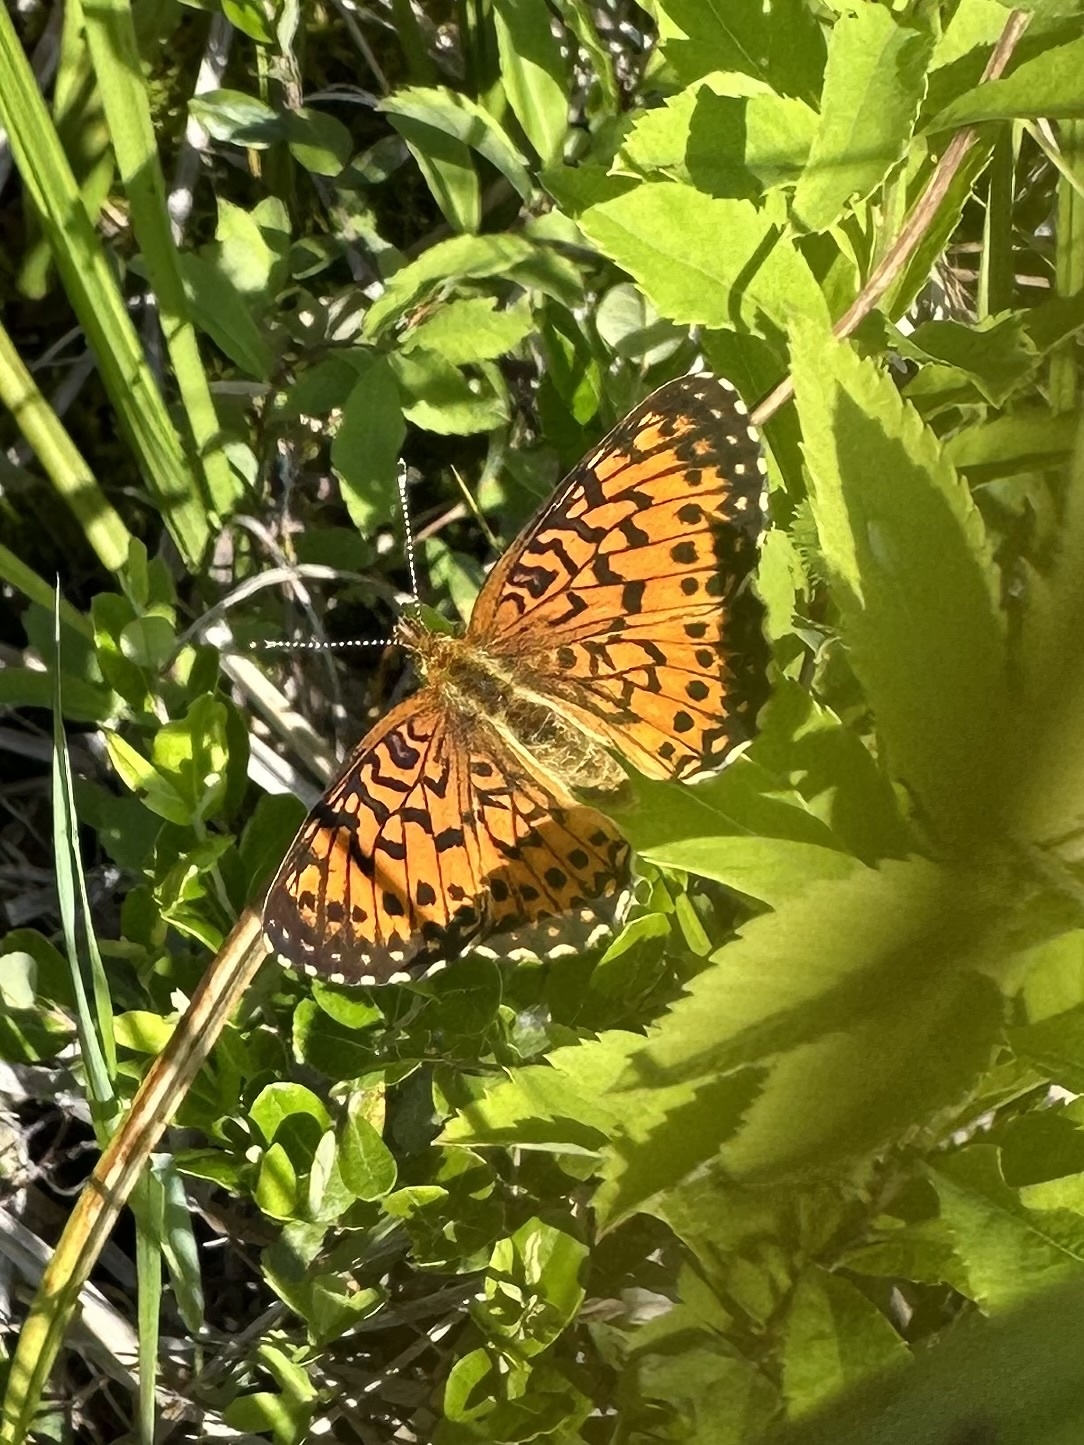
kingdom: Animalia
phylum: Arthropoda
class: Insecta
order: Lepidoptera
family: Nymphalidae
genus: Boloria
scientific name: Boloria
